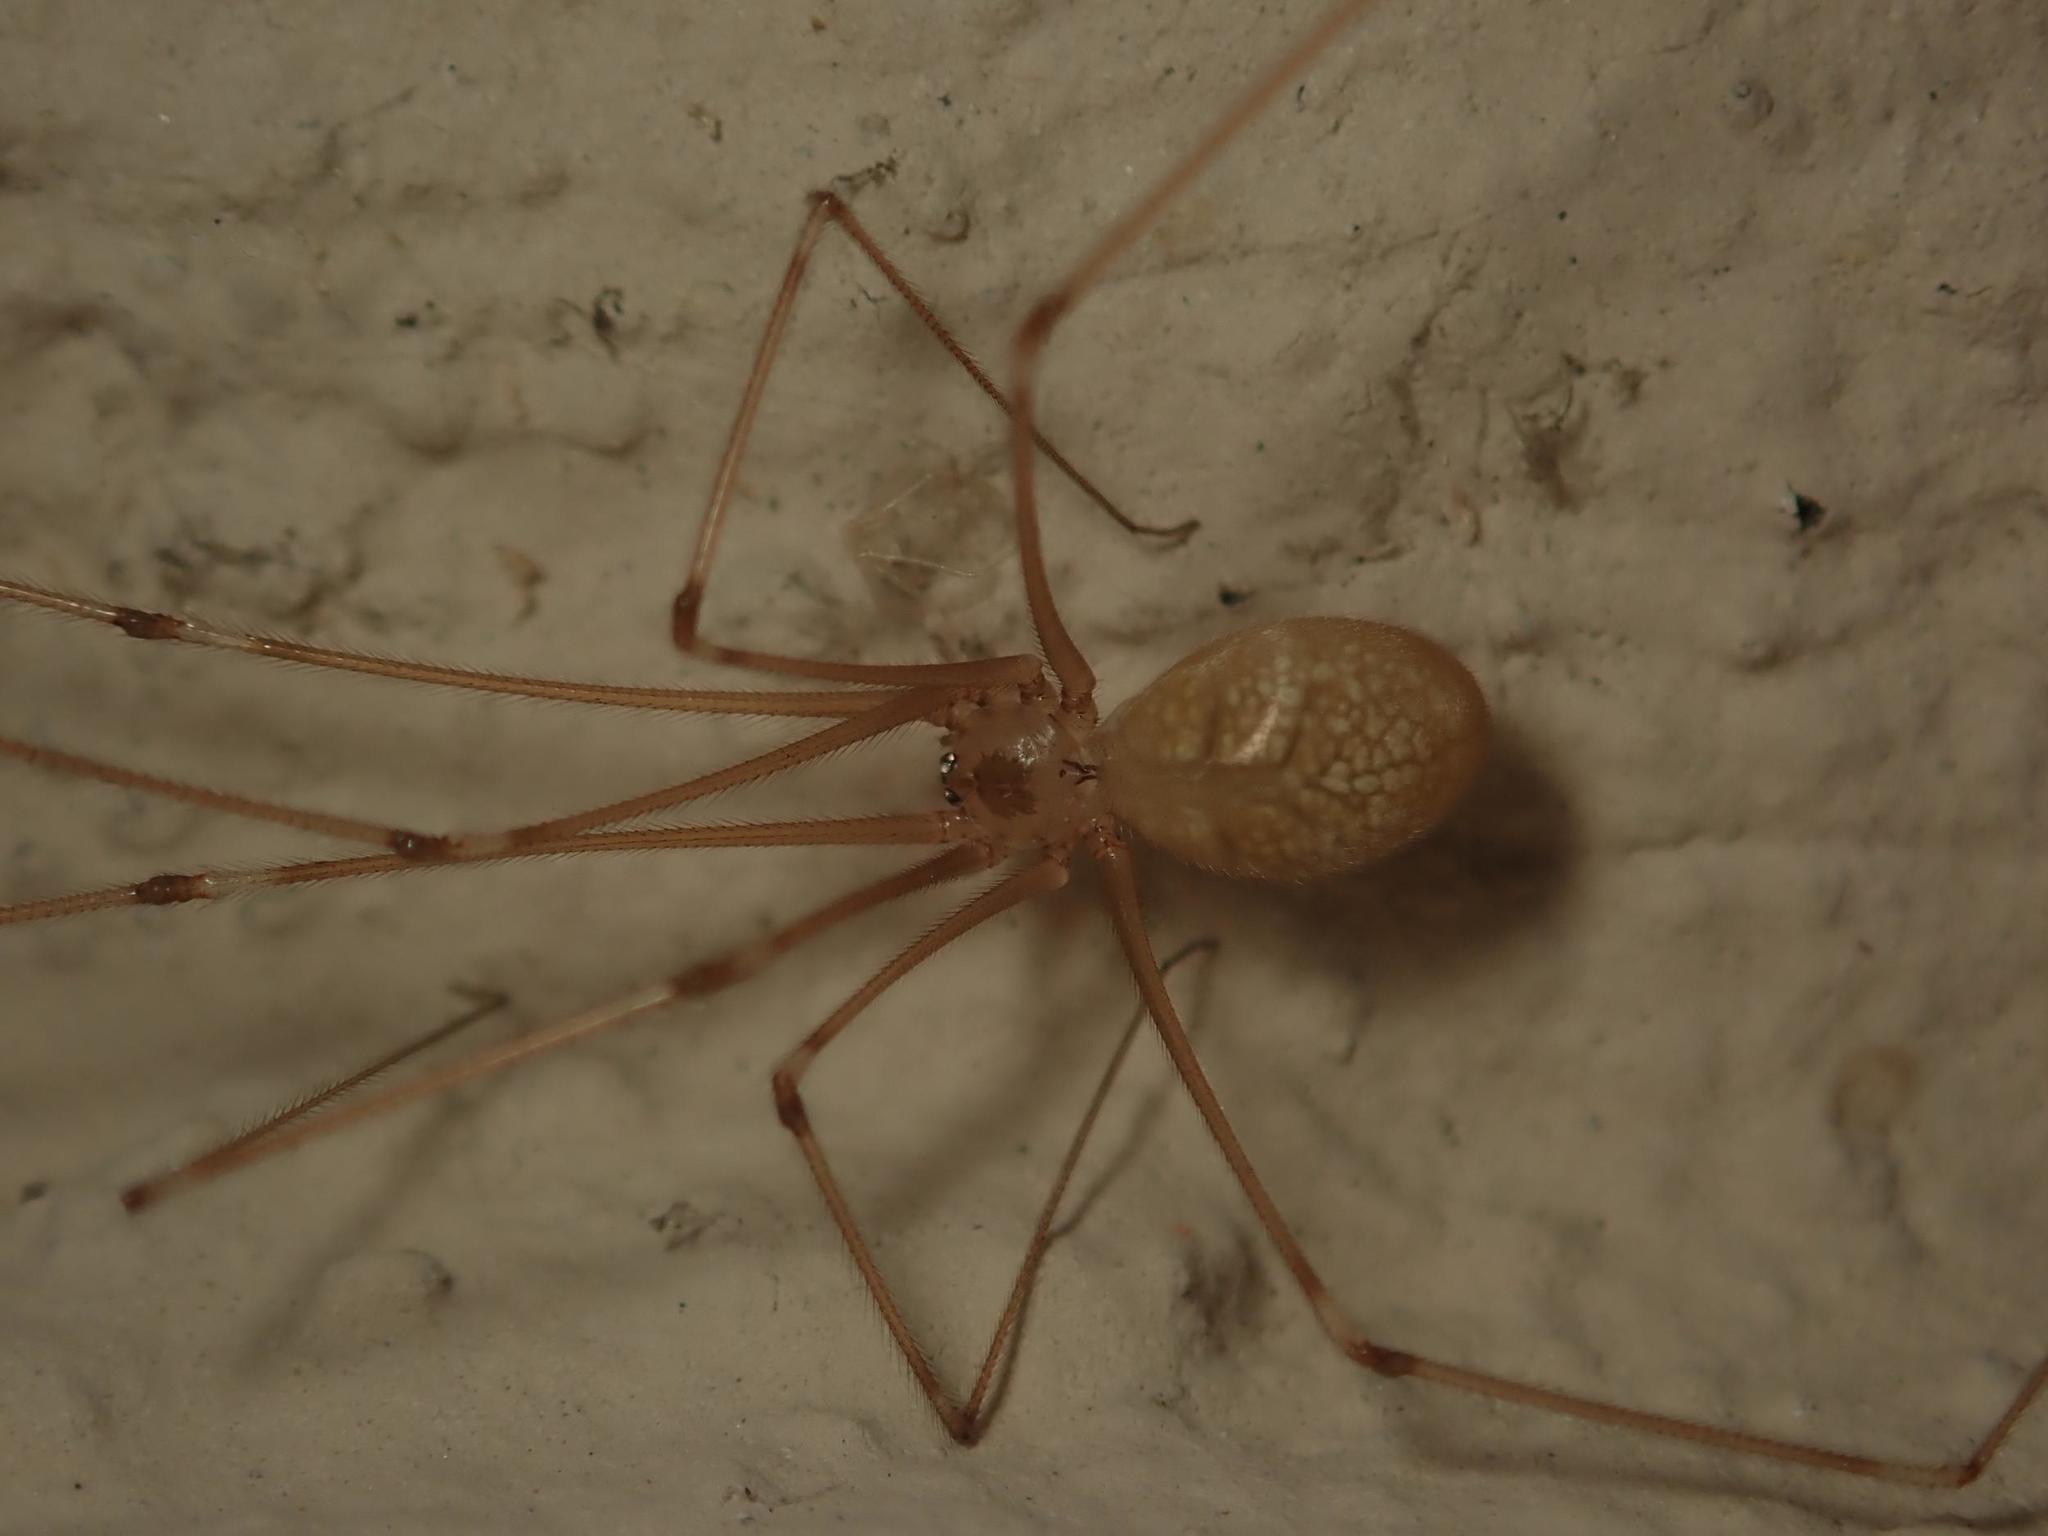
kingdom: Animalia
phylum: Arthropoda
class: Arachnida
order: Araneae
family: Pholcidae
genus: Pholcus
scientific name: Pholcus phalangioides
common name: Longbodied cellar spider
